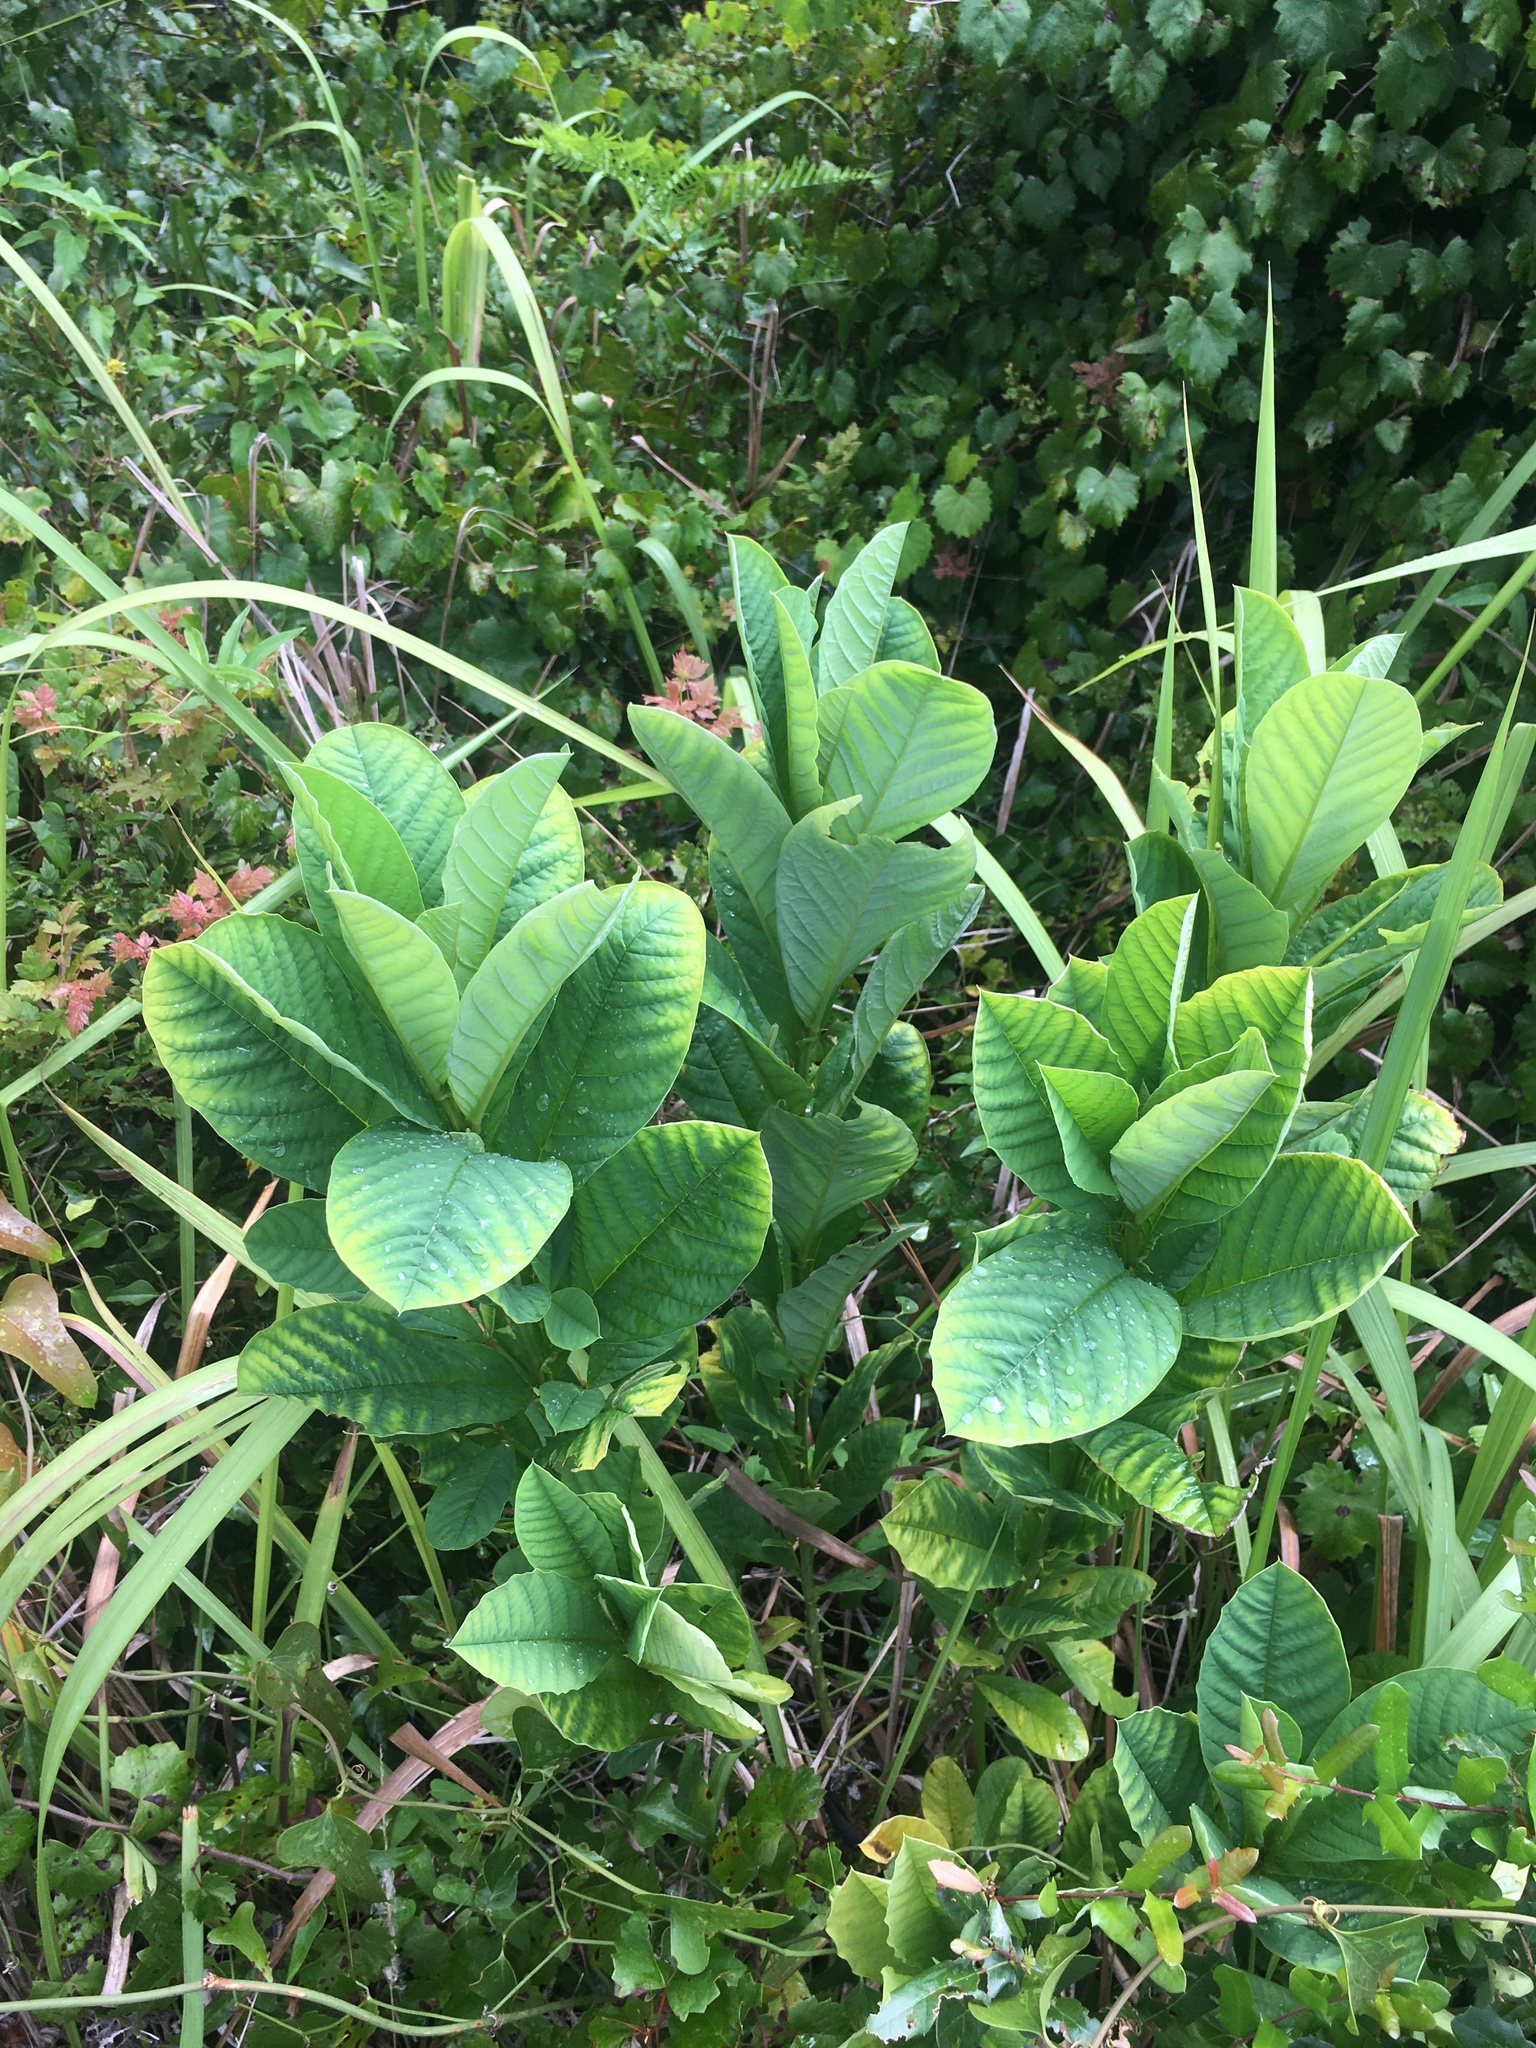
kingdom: Plantae
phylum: Tracheophyta
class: Magnoliopsida
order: Fabales
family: Fabaceae
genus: Crotalaria
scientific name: Crotalaria spectabilis
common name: Showy rattlebox
